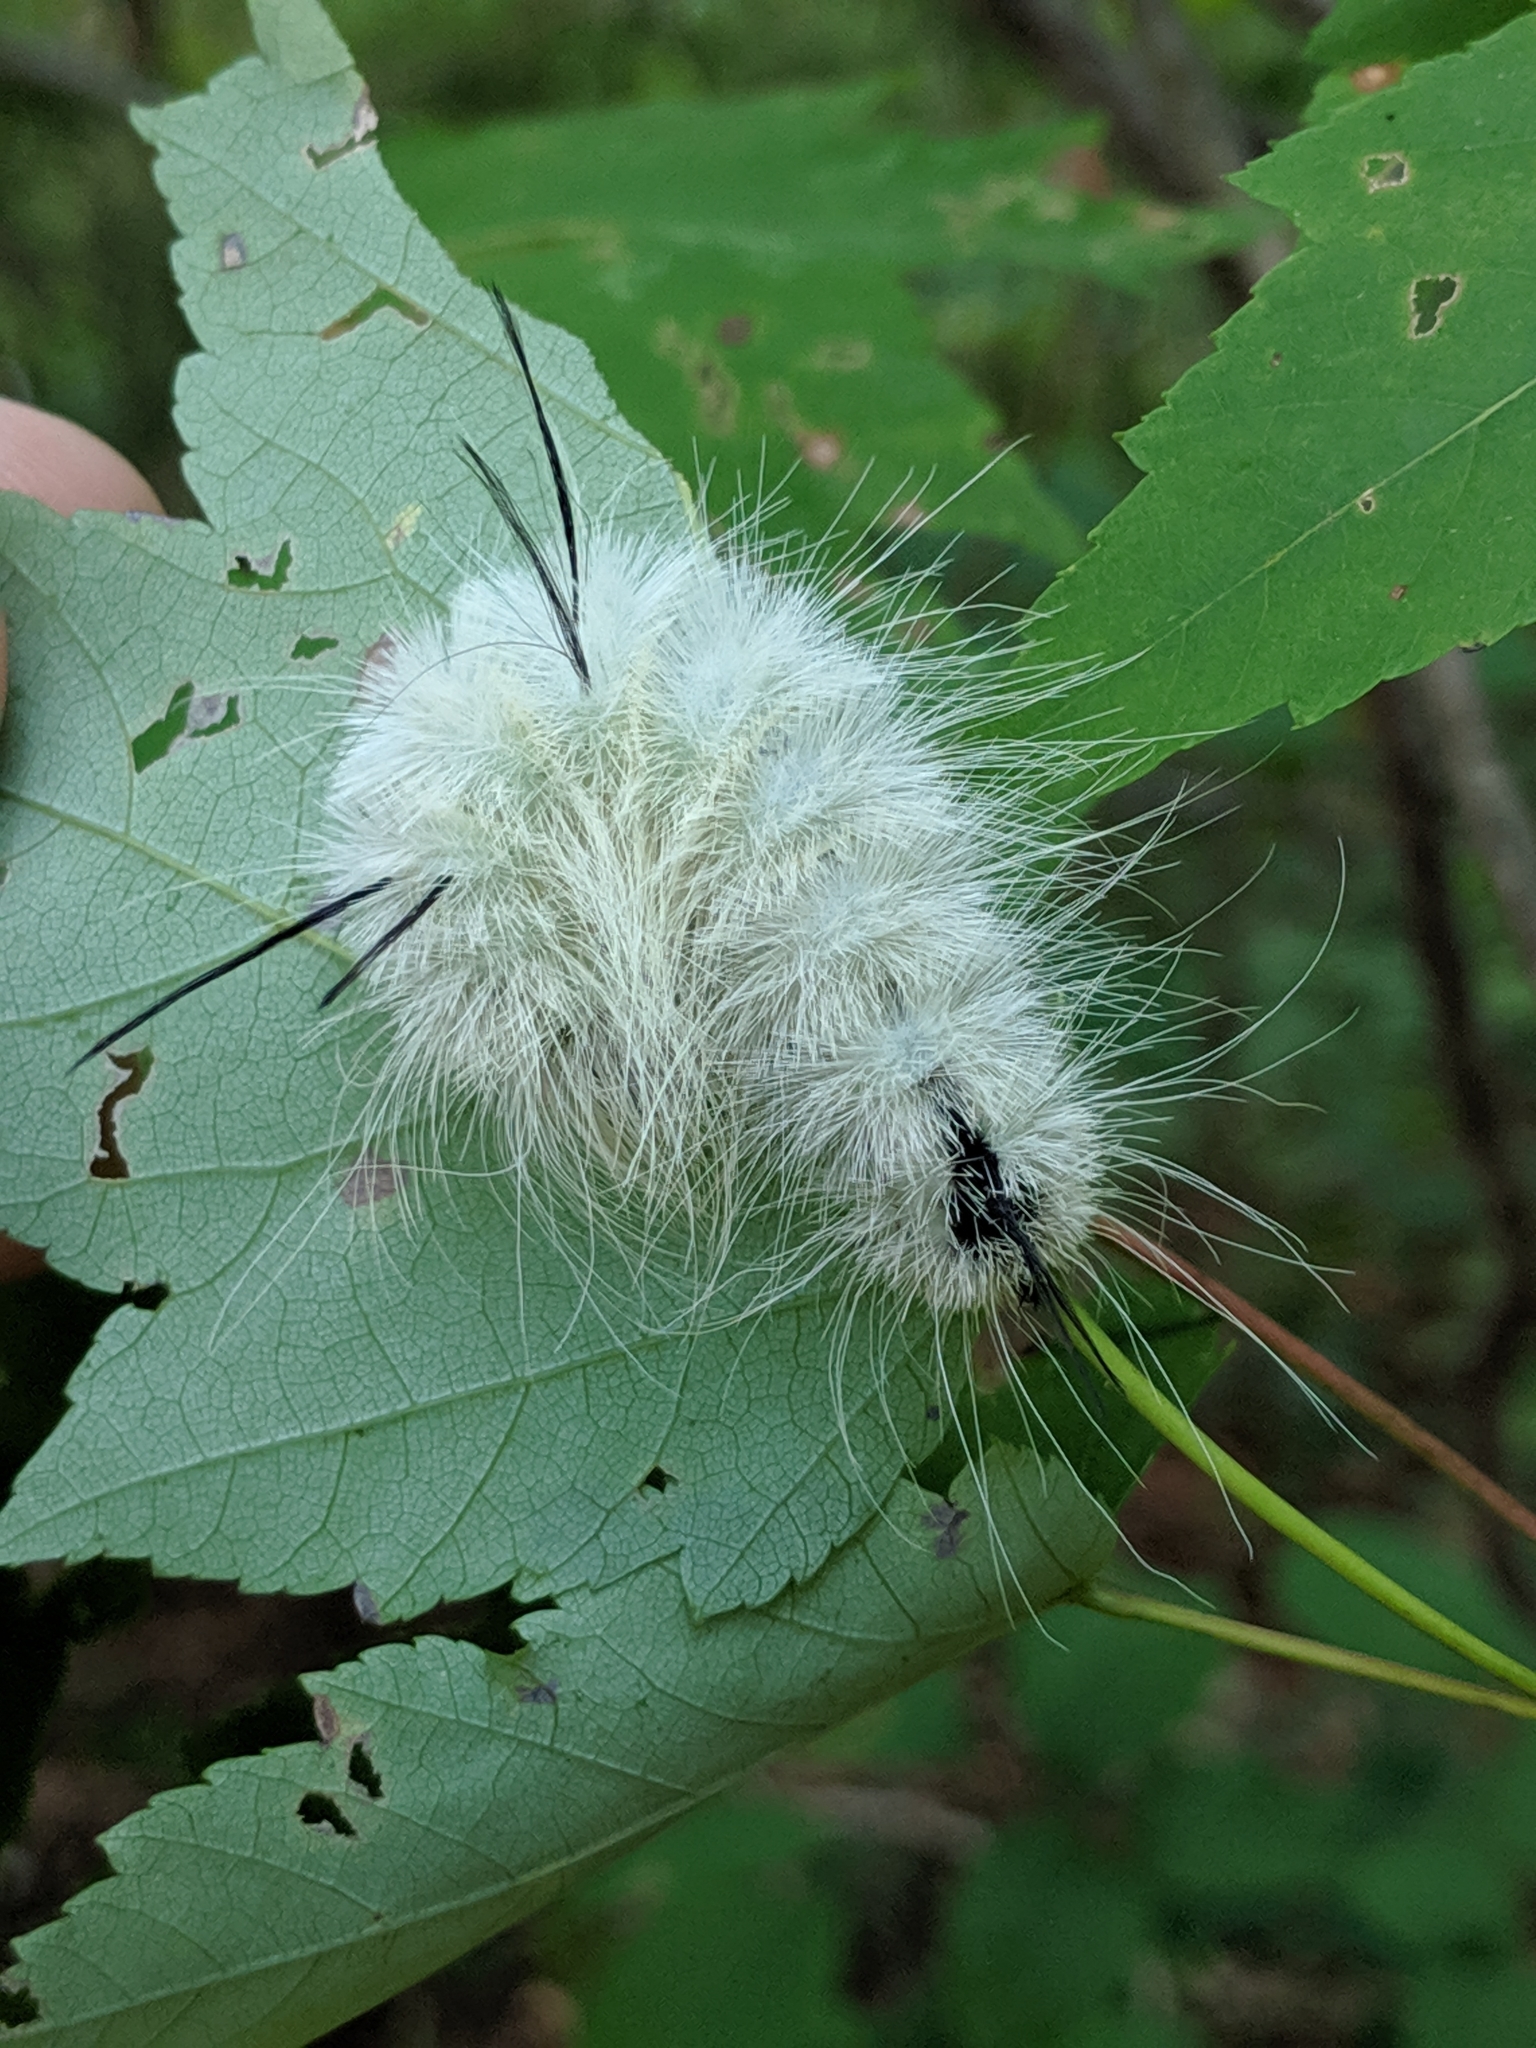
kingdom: Animalia
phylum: Arthropoda
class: Insecta
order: Lepidoptera
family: Noctuidae
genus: Acronicta
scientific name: Acronicta americana
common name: American dagger
